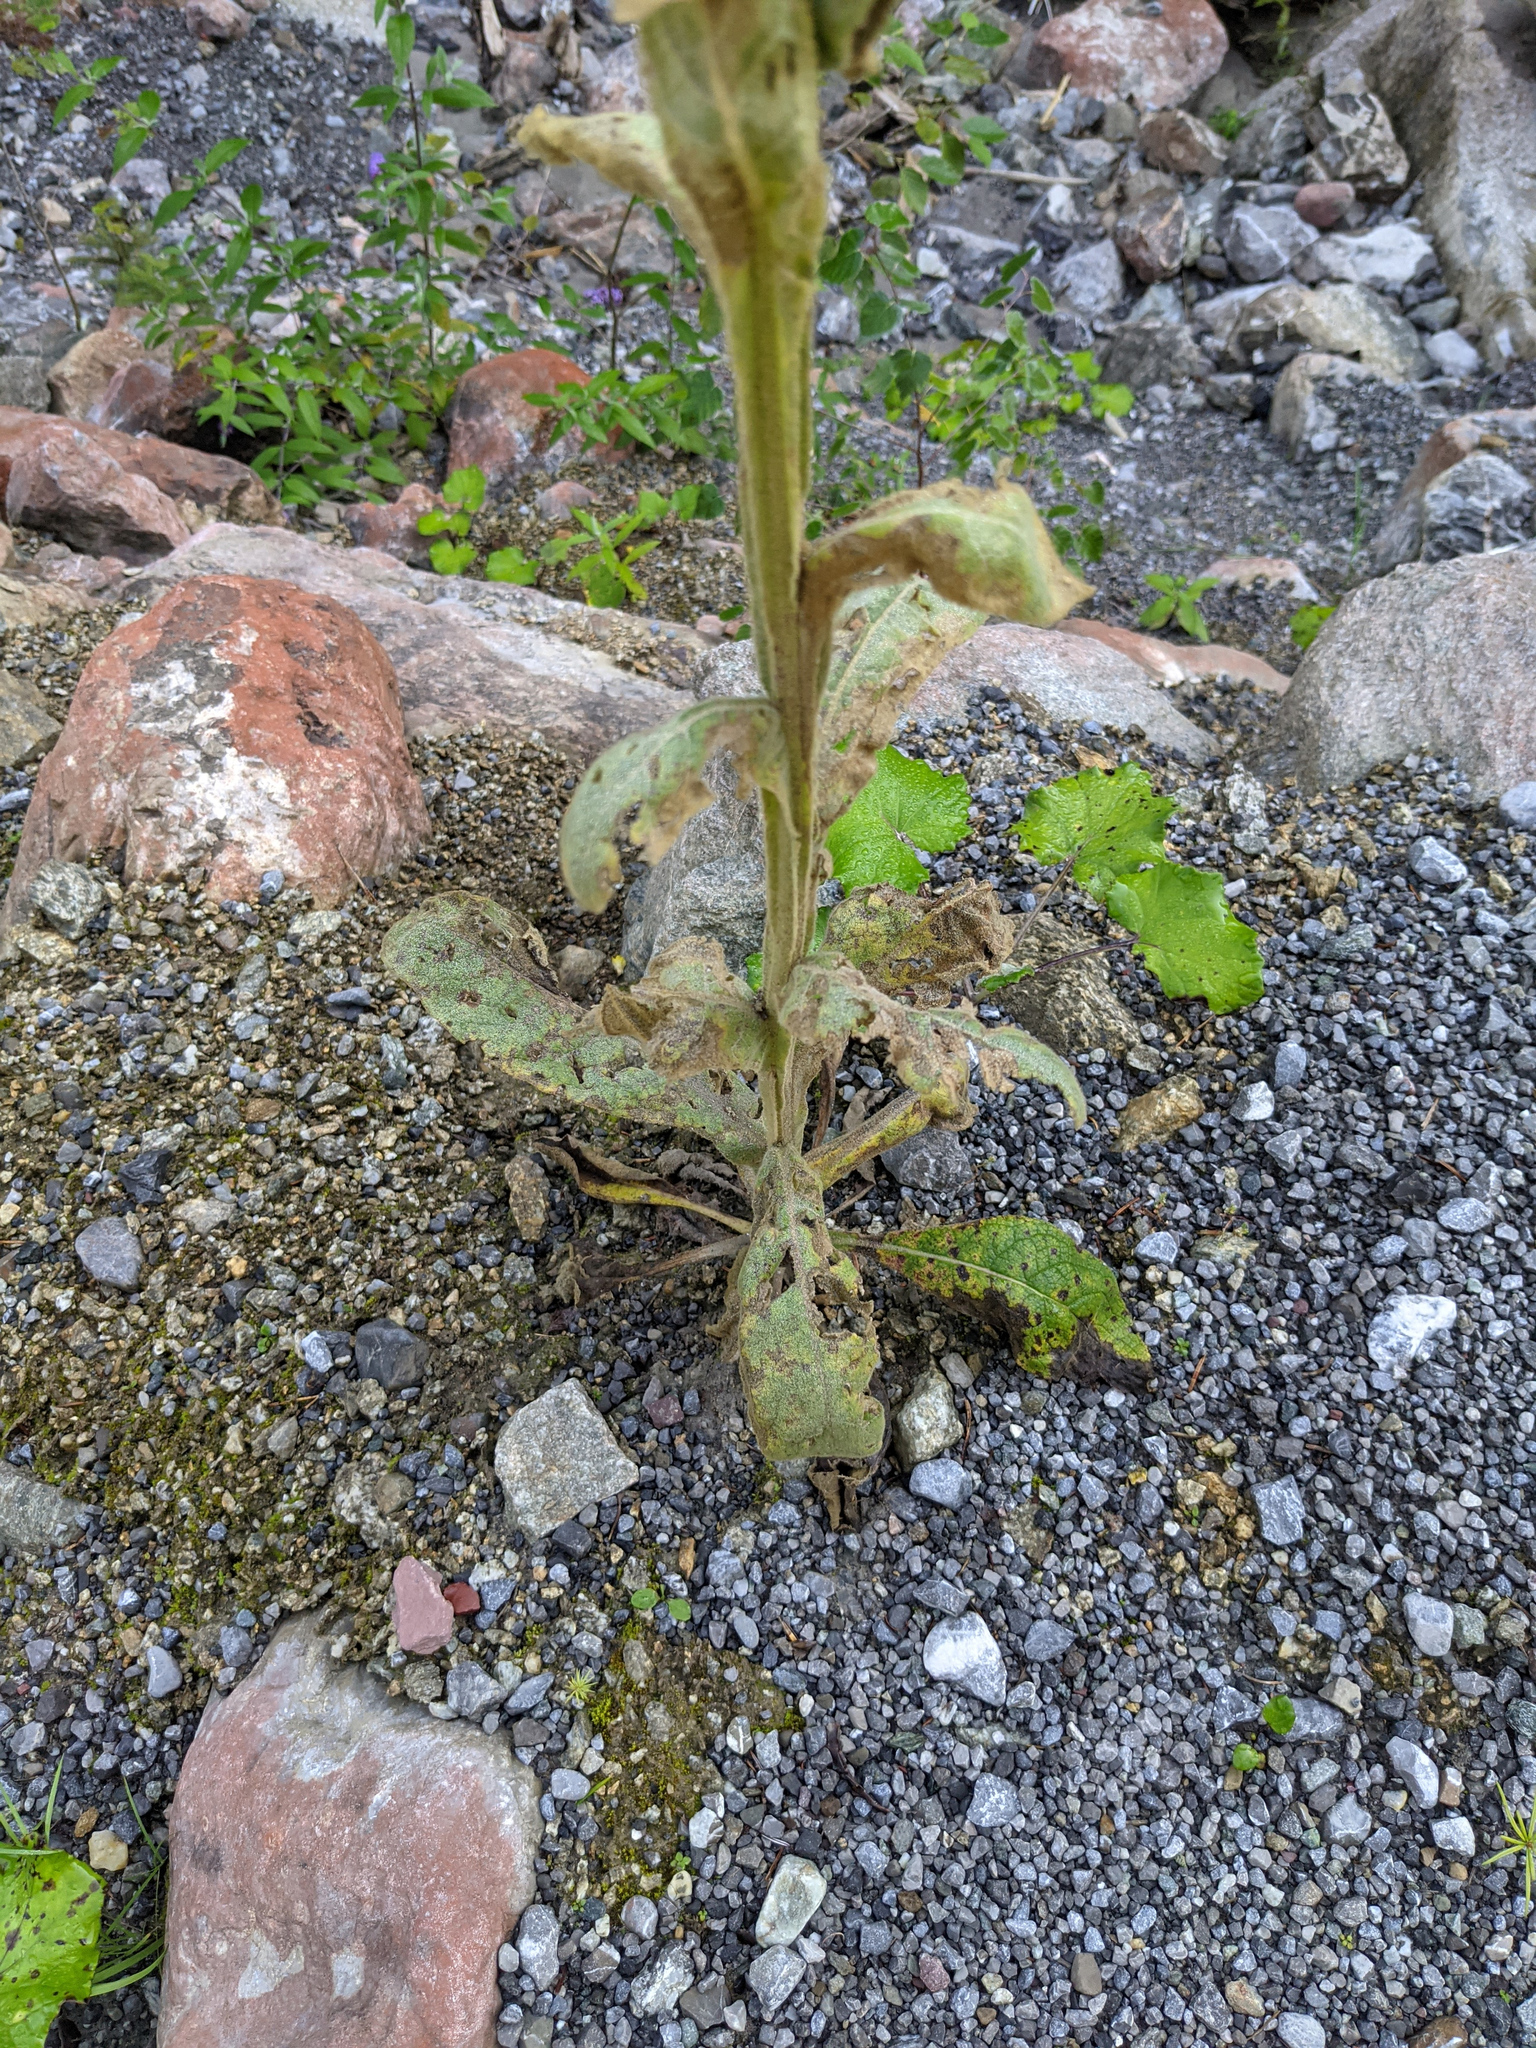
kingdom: Plantae
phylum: Tracheophyta
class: Magnoliopsida
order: Lamiales
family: Scrophulariaceae
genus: Verbascum
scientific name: Verbascum thapsus
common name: Common mullein
